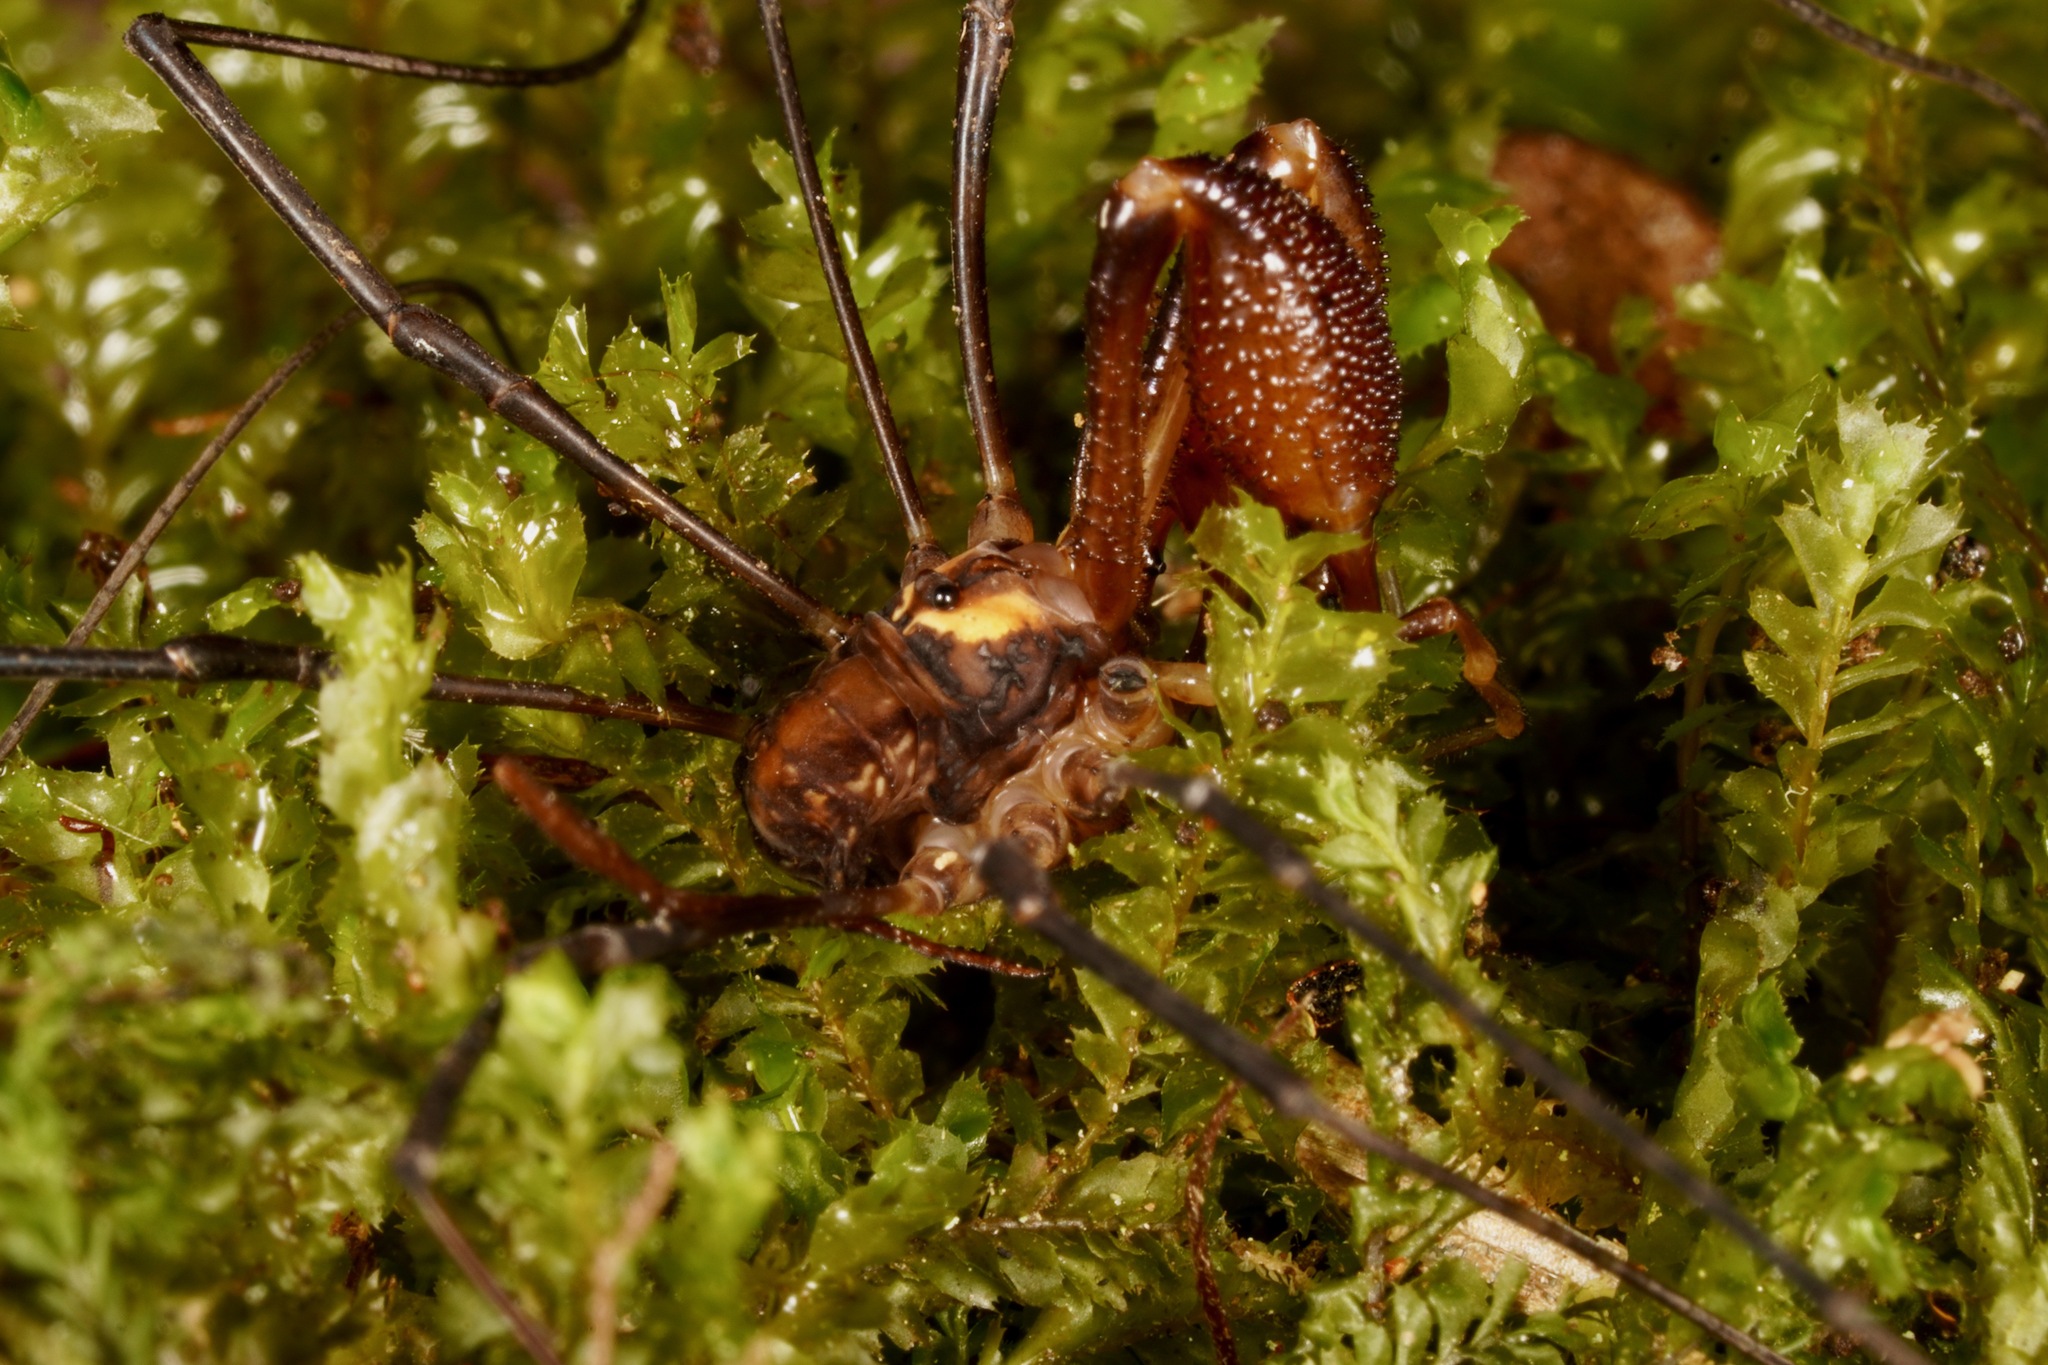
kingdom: Animalia
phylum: Arthropoda
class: Arachnida
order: Opiliones
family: Neopilionidae
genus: Forsteropsalis
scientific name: Forsteropsalis bona
